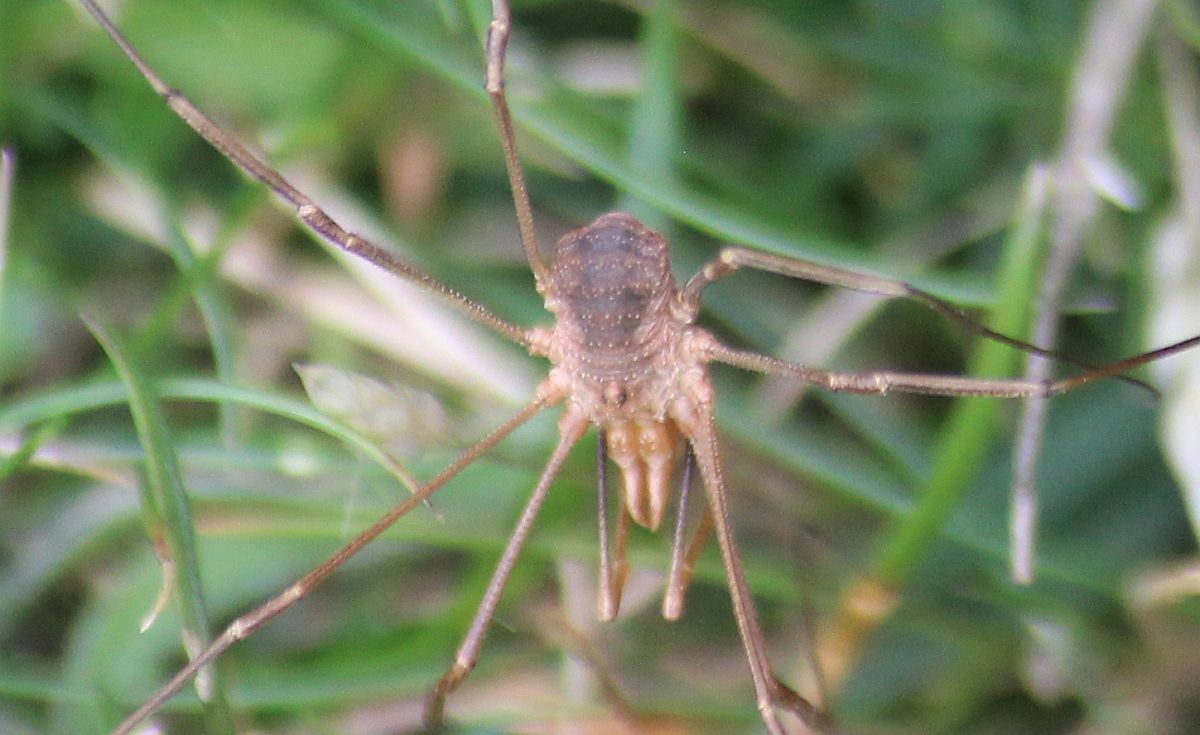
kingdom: Animalia
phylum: Arthropoda
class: Arachnida
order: Opiliones
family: Phalangiidae
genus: Phalangium
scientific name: Phalangium opilio
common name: Daddy longleg
